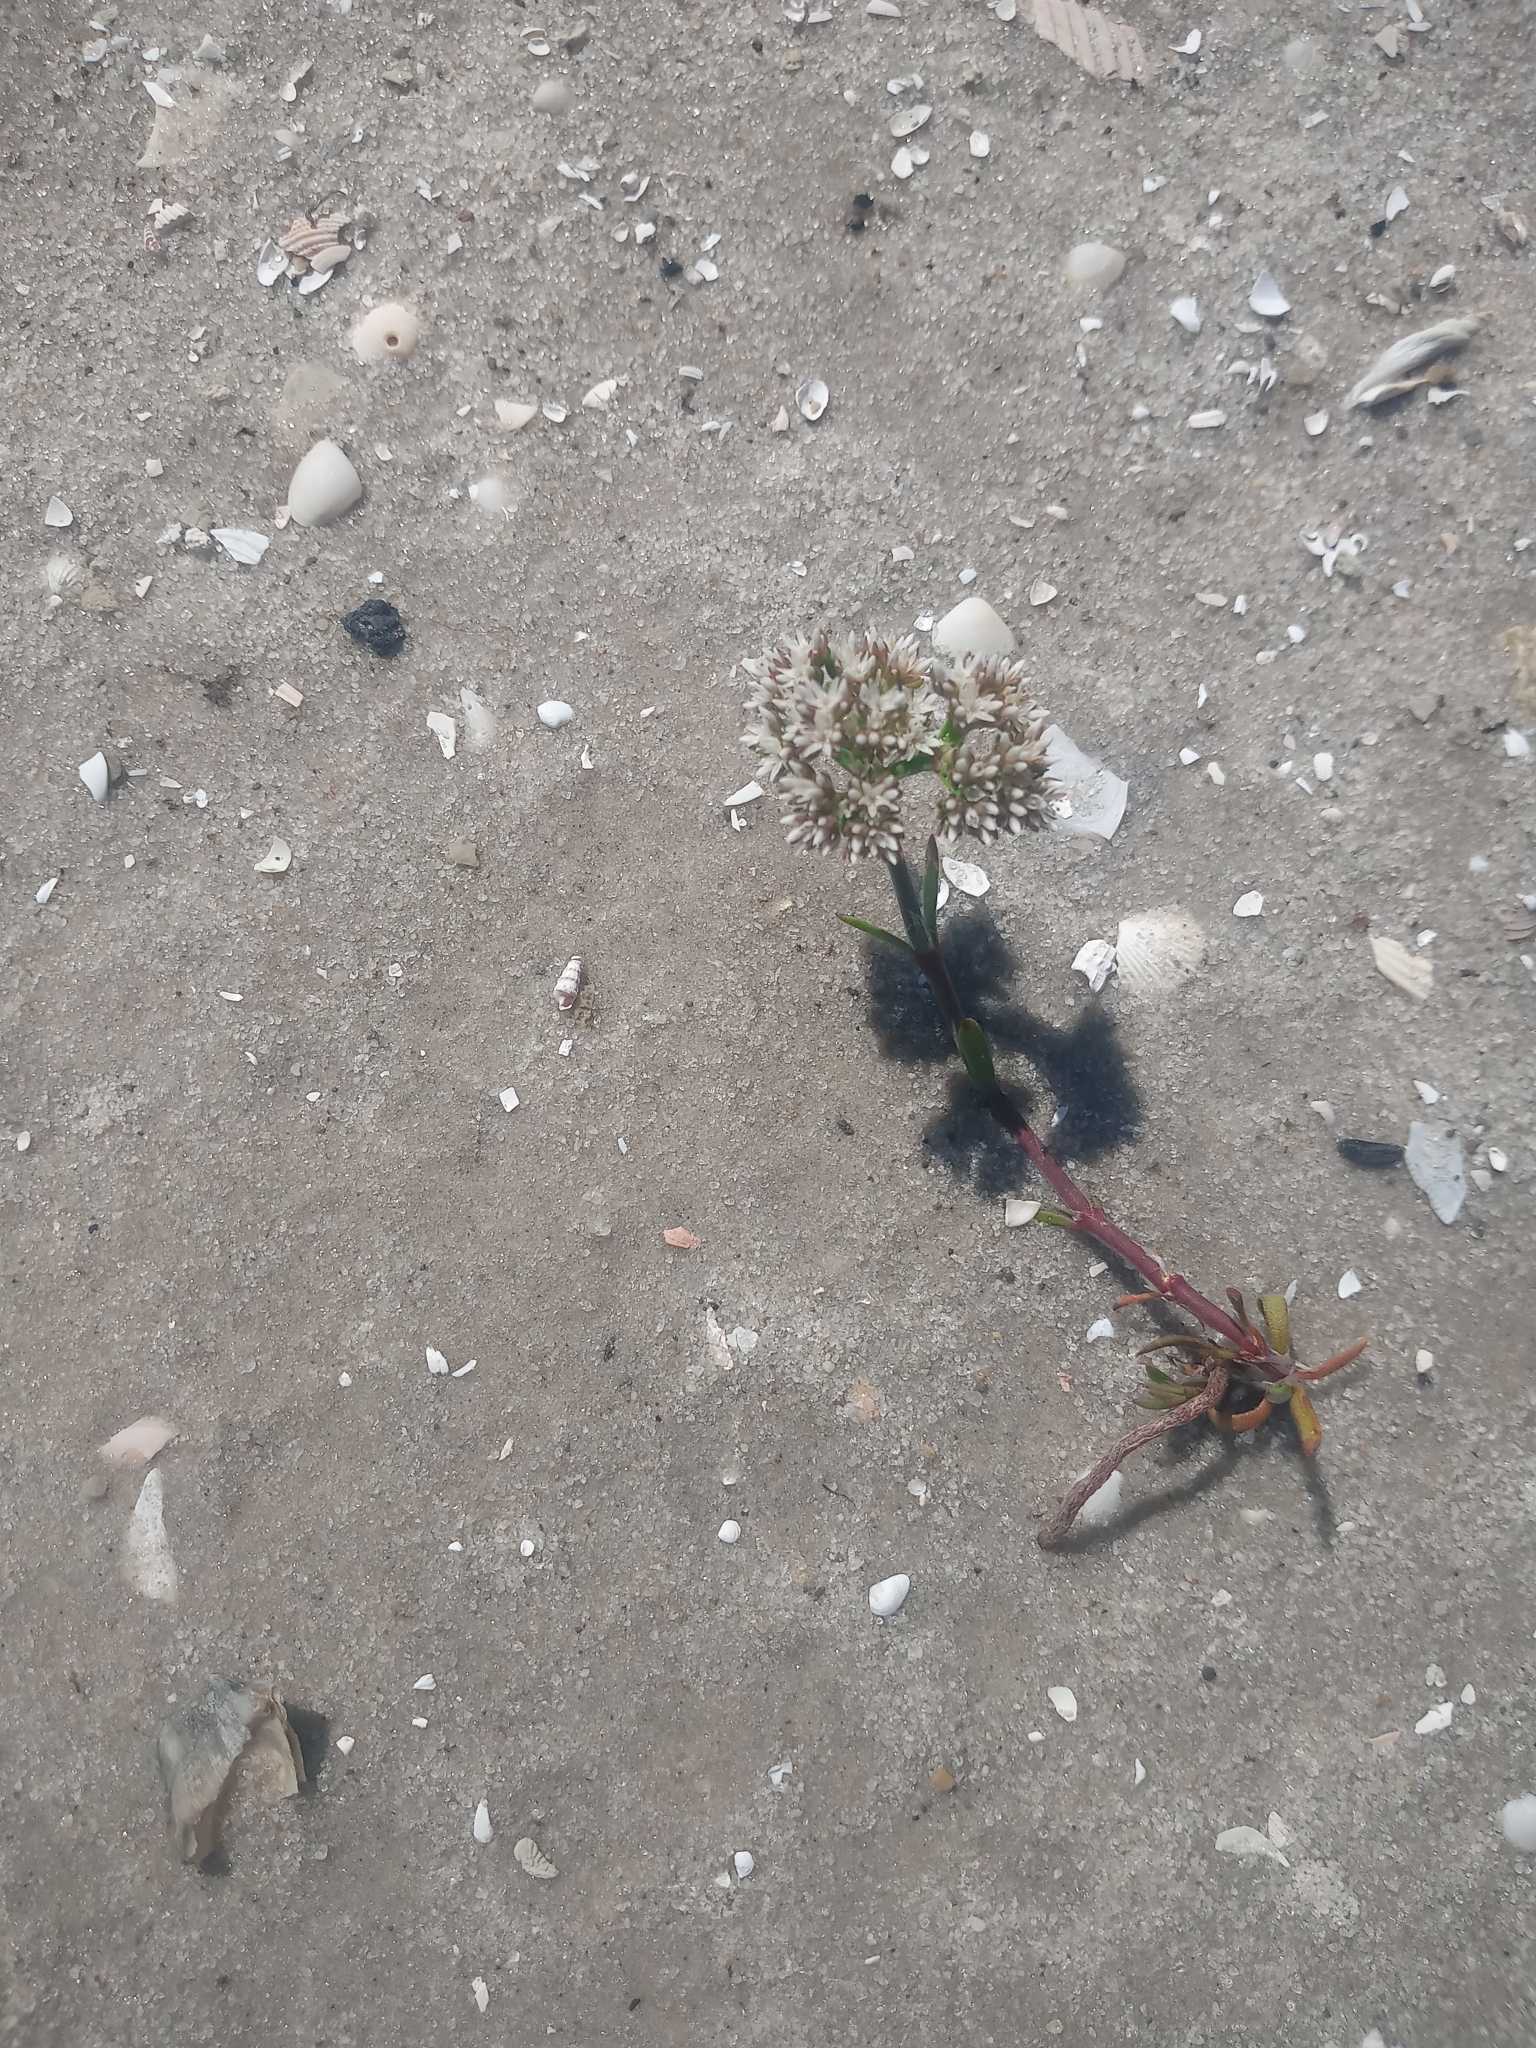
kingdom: Plantae
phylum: Tracheophyta
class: Magnoliopsida
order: Caryophyllales
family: Caryophyllaceae
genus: Paronychia
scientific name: Paronychia erecta
